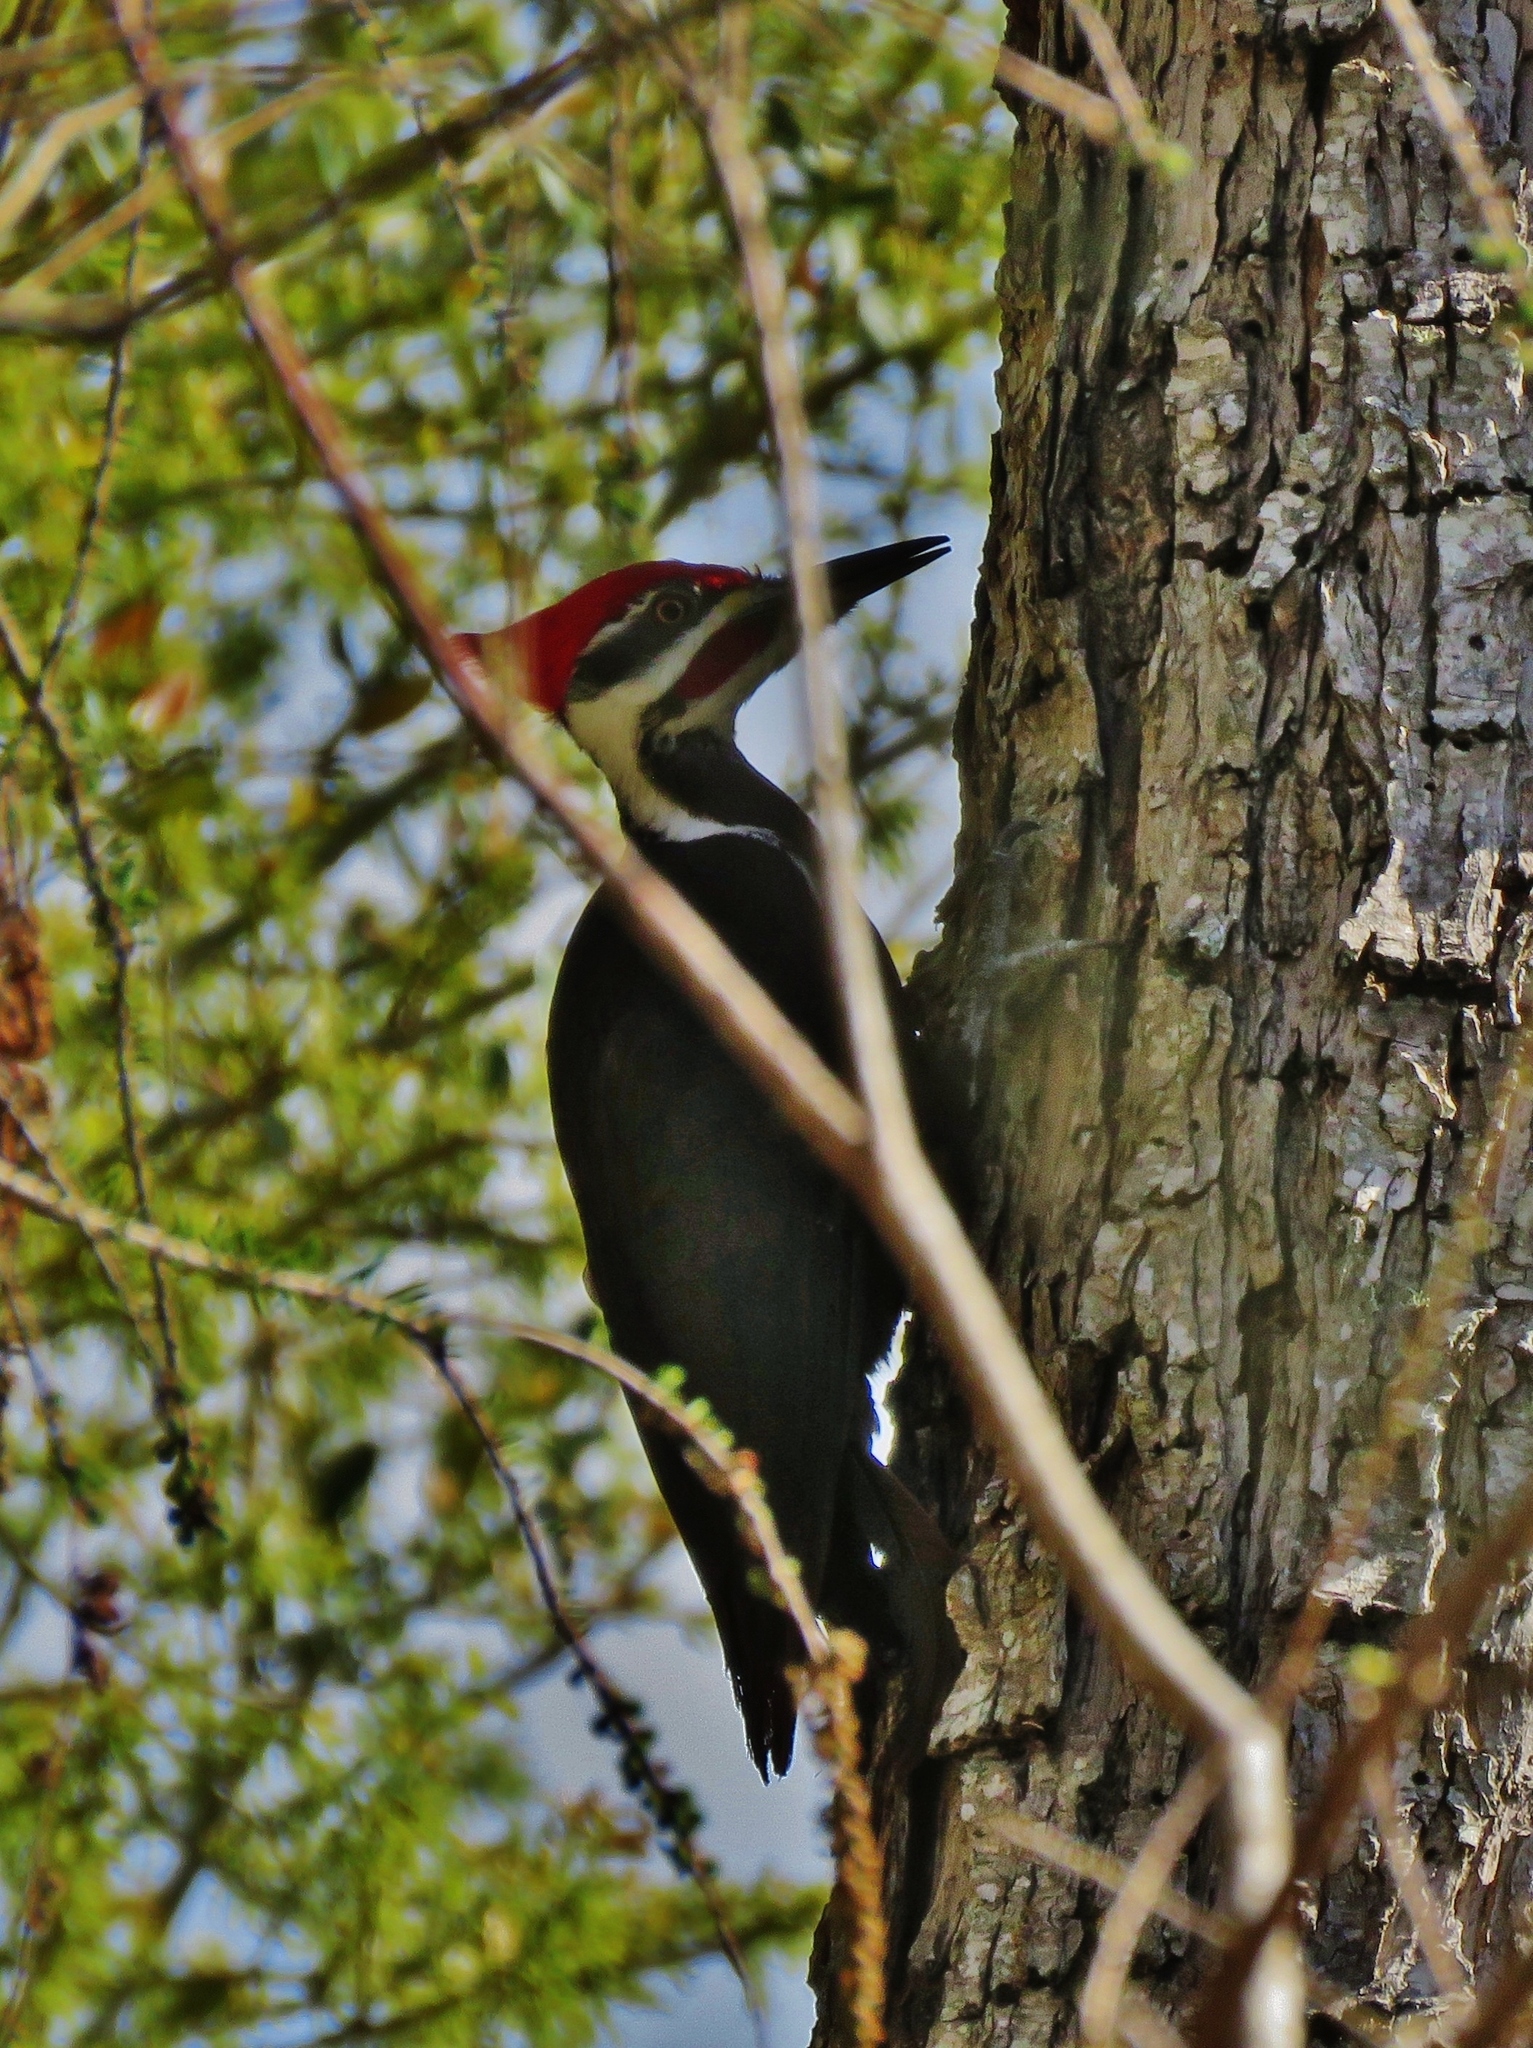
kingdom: Animalia
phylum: Chordata
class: Aves
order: Piciformes
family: Picidae
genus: Dryocopus
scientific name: Dryocopus pileatus
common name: Pileated woodpecker
